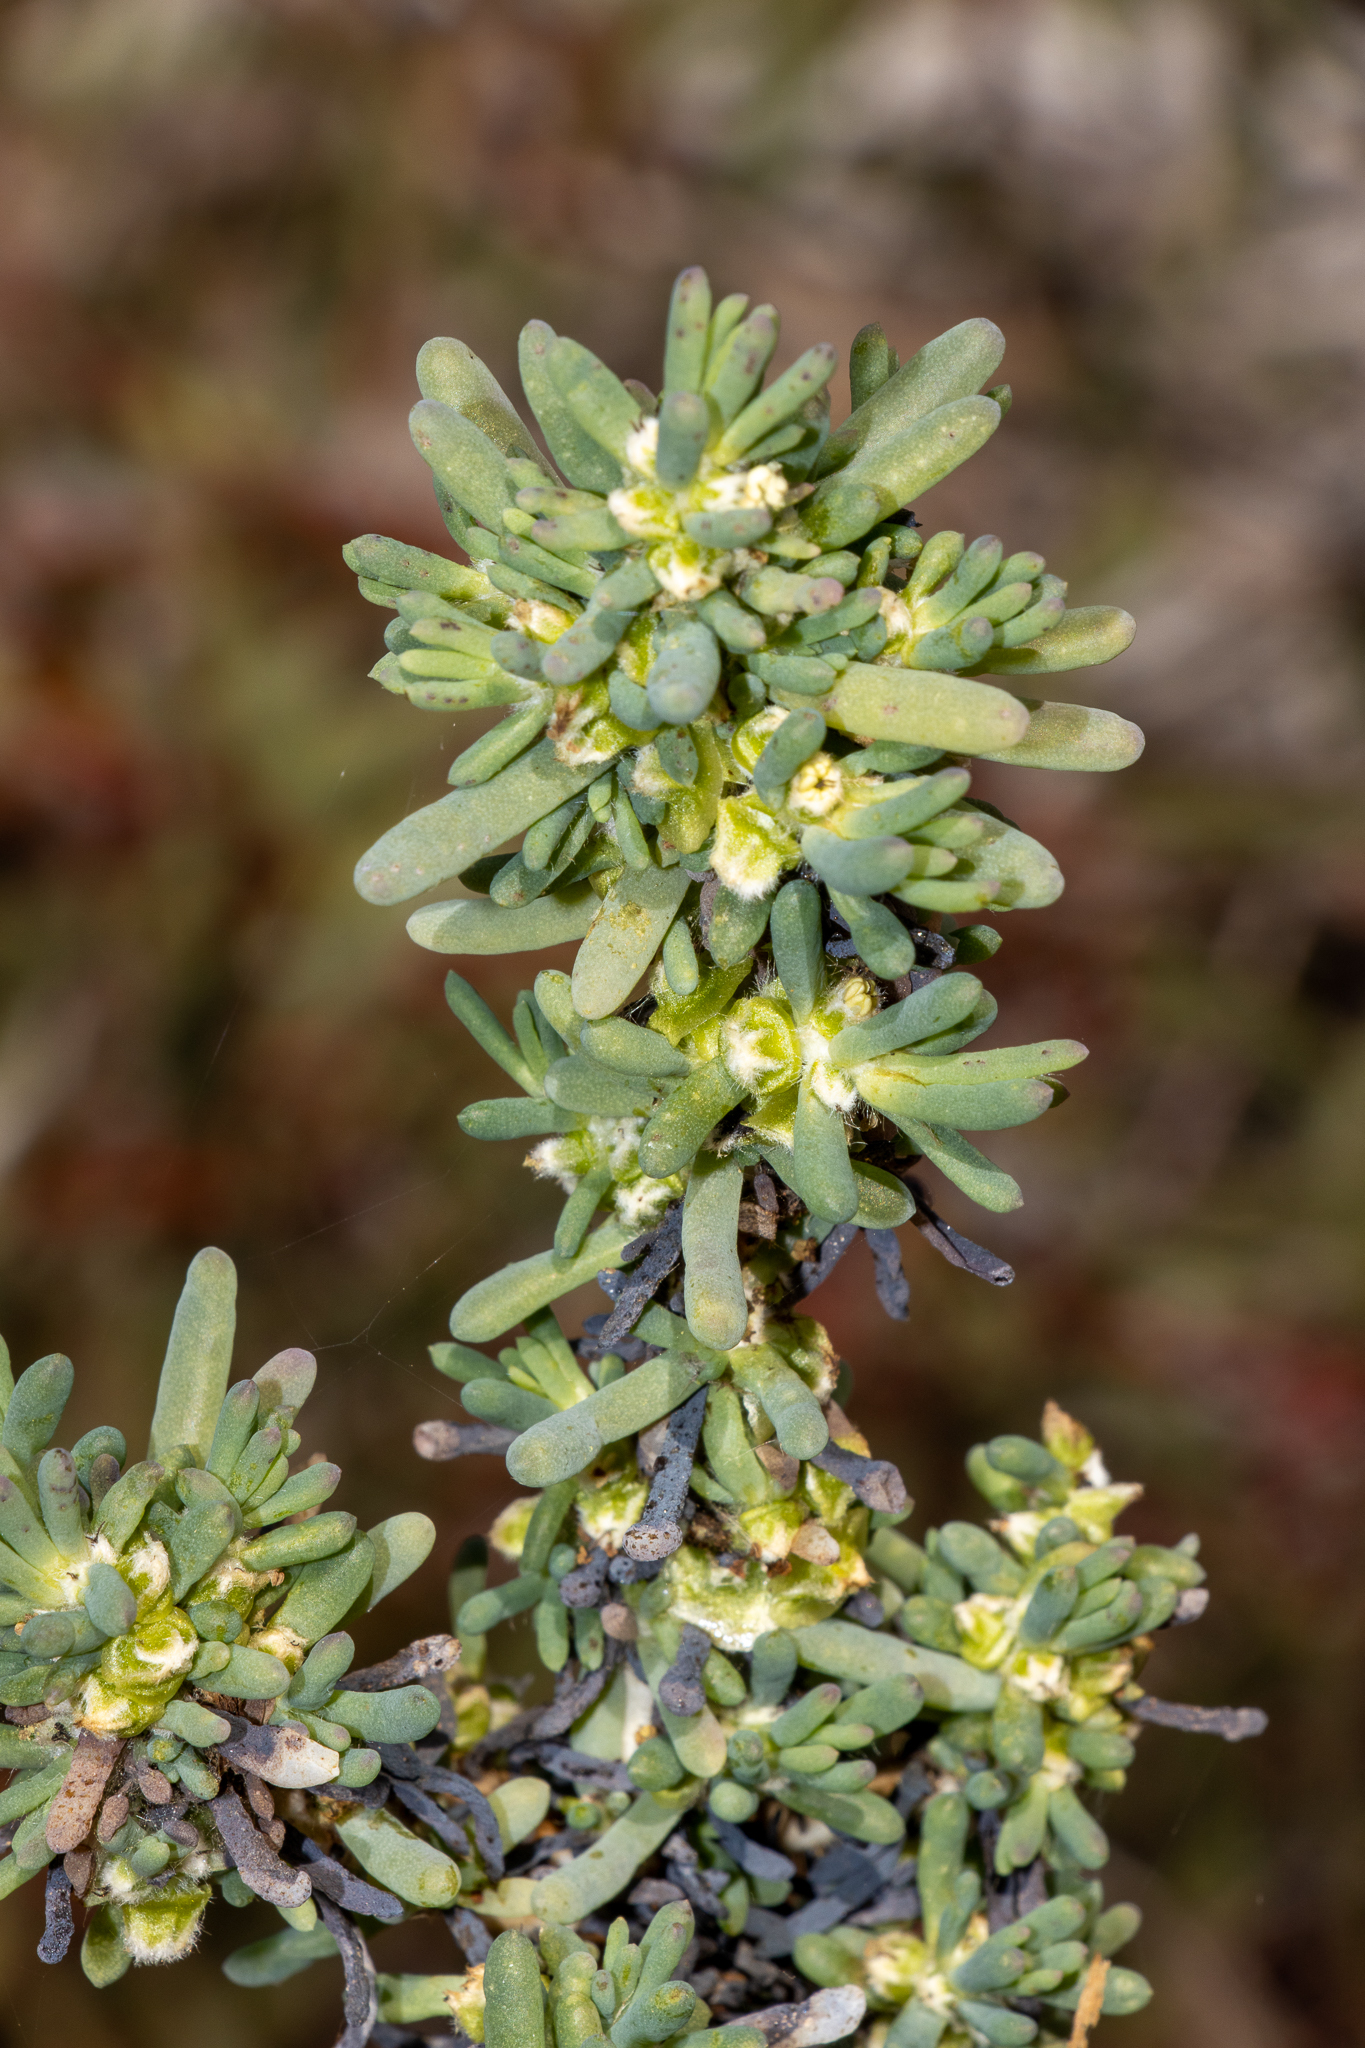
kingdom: Plantae
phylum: Tracheophyta
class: Magnoliopsida
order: Caryophyllales
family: Amaranthaceae
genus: Maireana
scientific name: Maireana pentatropis
